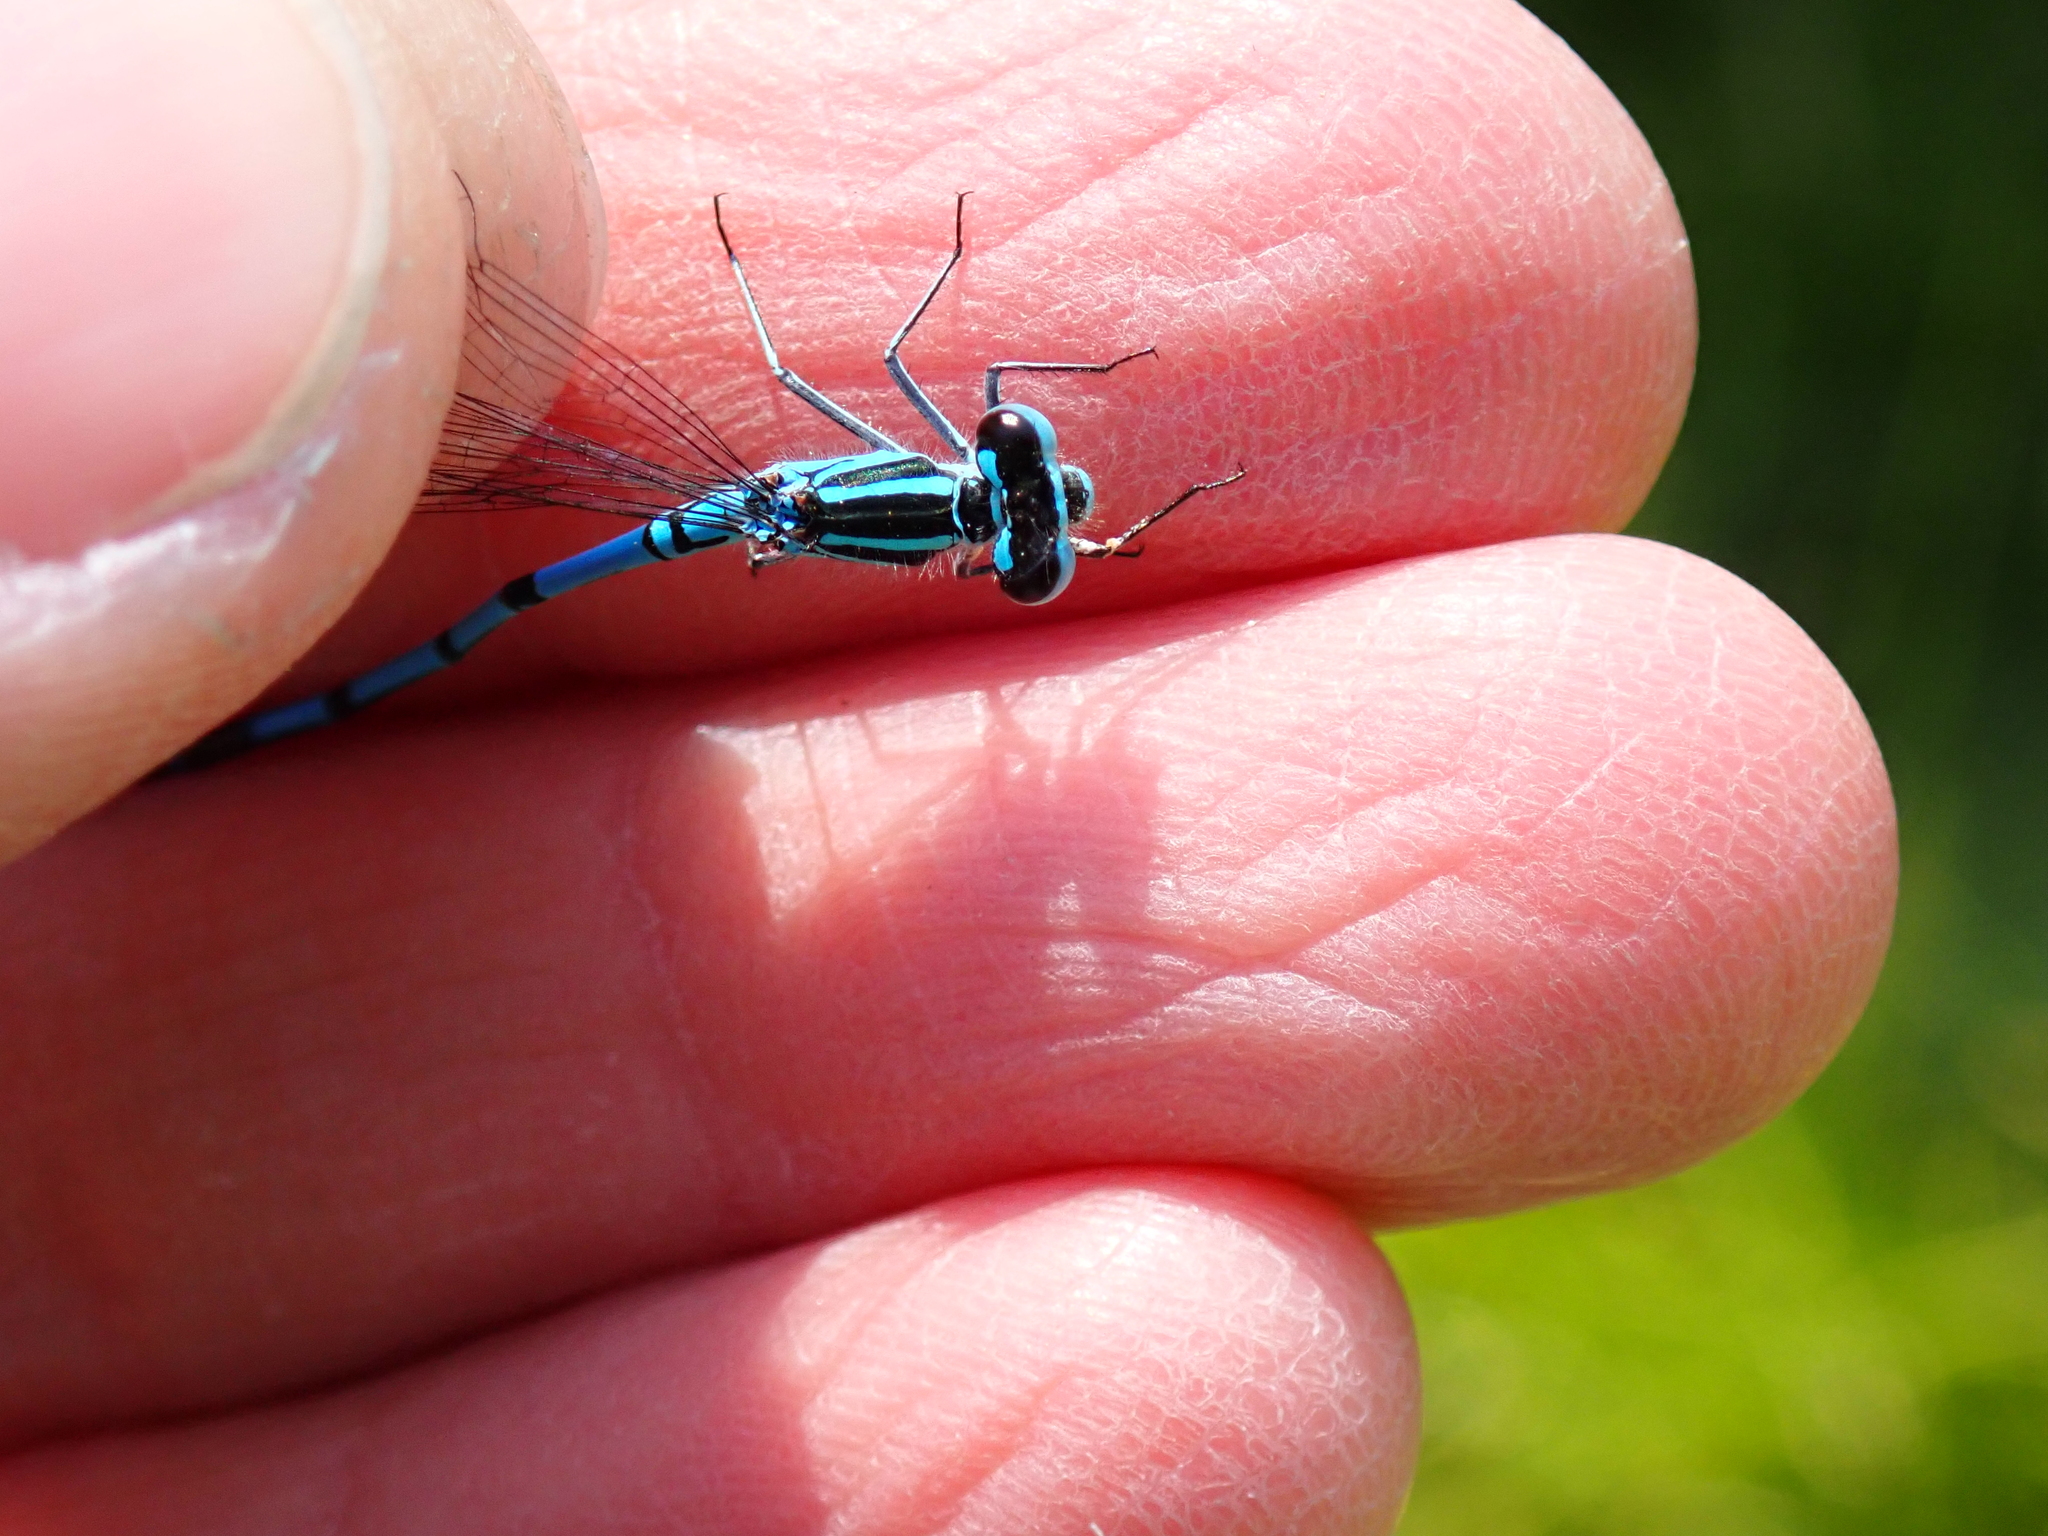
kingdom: Animalia
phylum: Arthropoda
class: Insecta
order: Odonata
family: Coenagrionidae
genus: Coenagrion
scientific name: Coenagrion puella
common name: Azure damselfly
